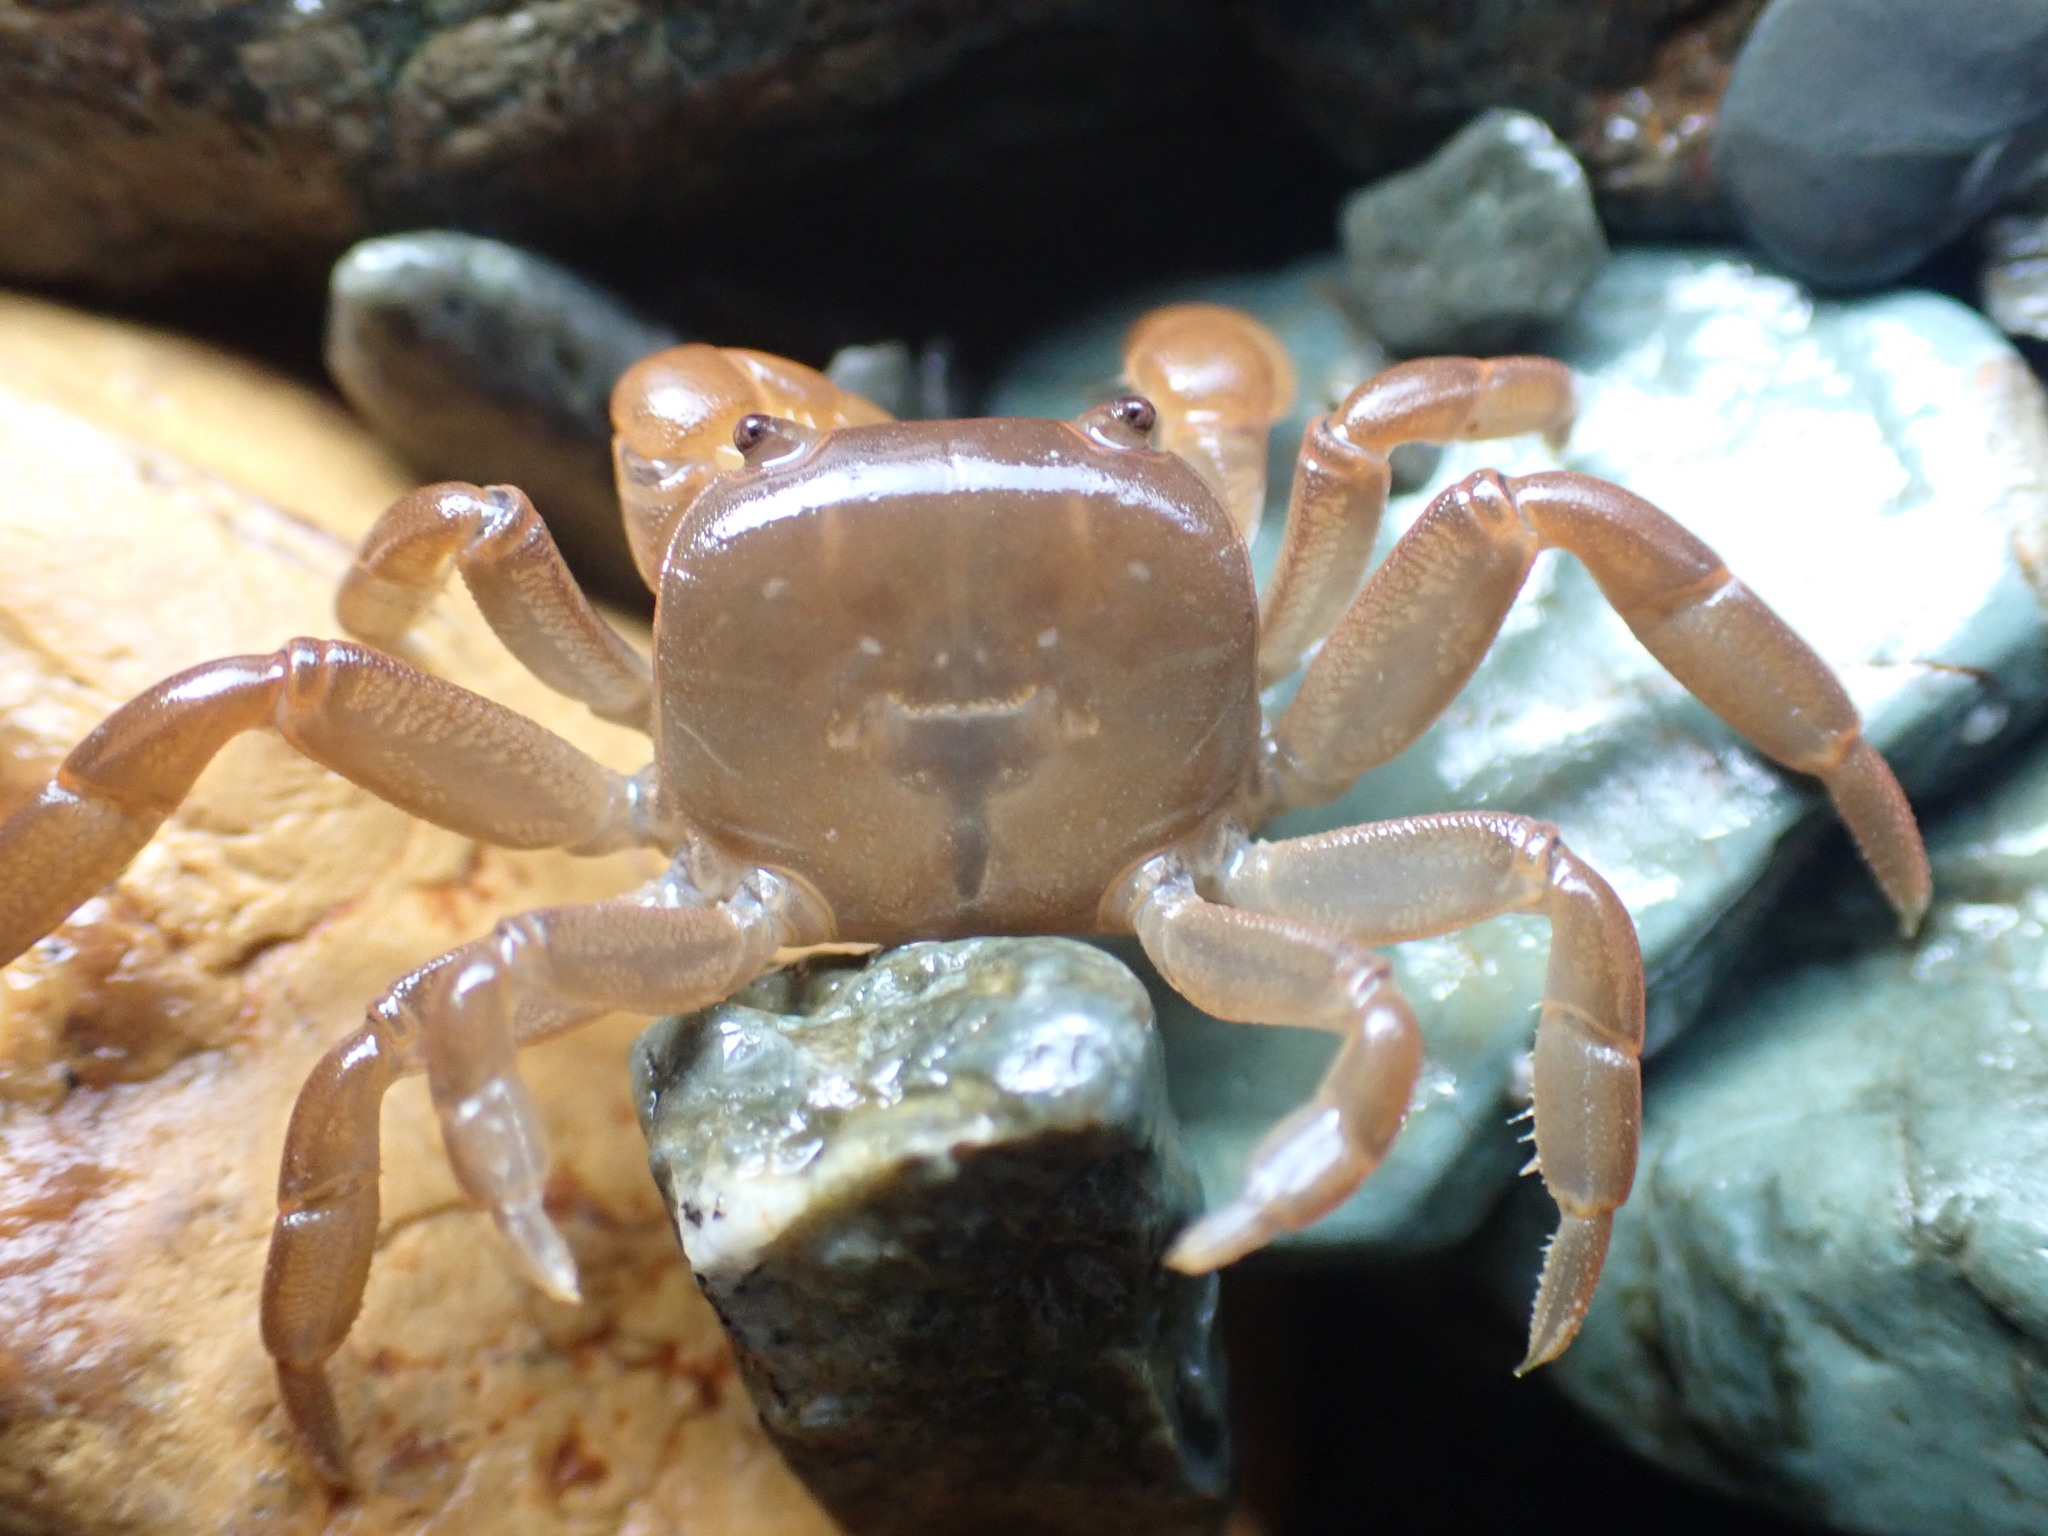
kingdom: Animalia
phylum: Arthropoda
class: Malacostraca
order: Decapoda
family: Varunidae
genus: Cyclograpsus
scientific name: Cyclograpsus insularum
